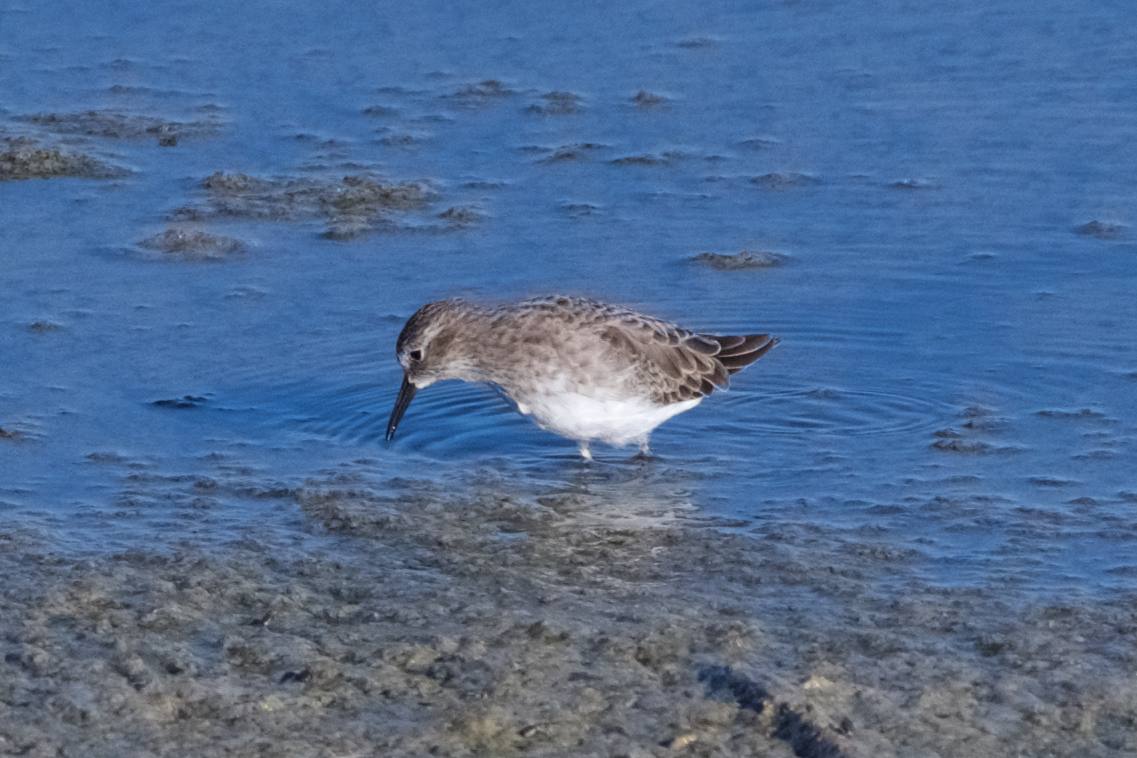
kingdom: Animalia
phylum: Chordata
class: Aves
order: Charadriiformes
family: Scolopacidae
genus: Calidris
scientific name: Calidris minutilla
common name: Least sandpiper
